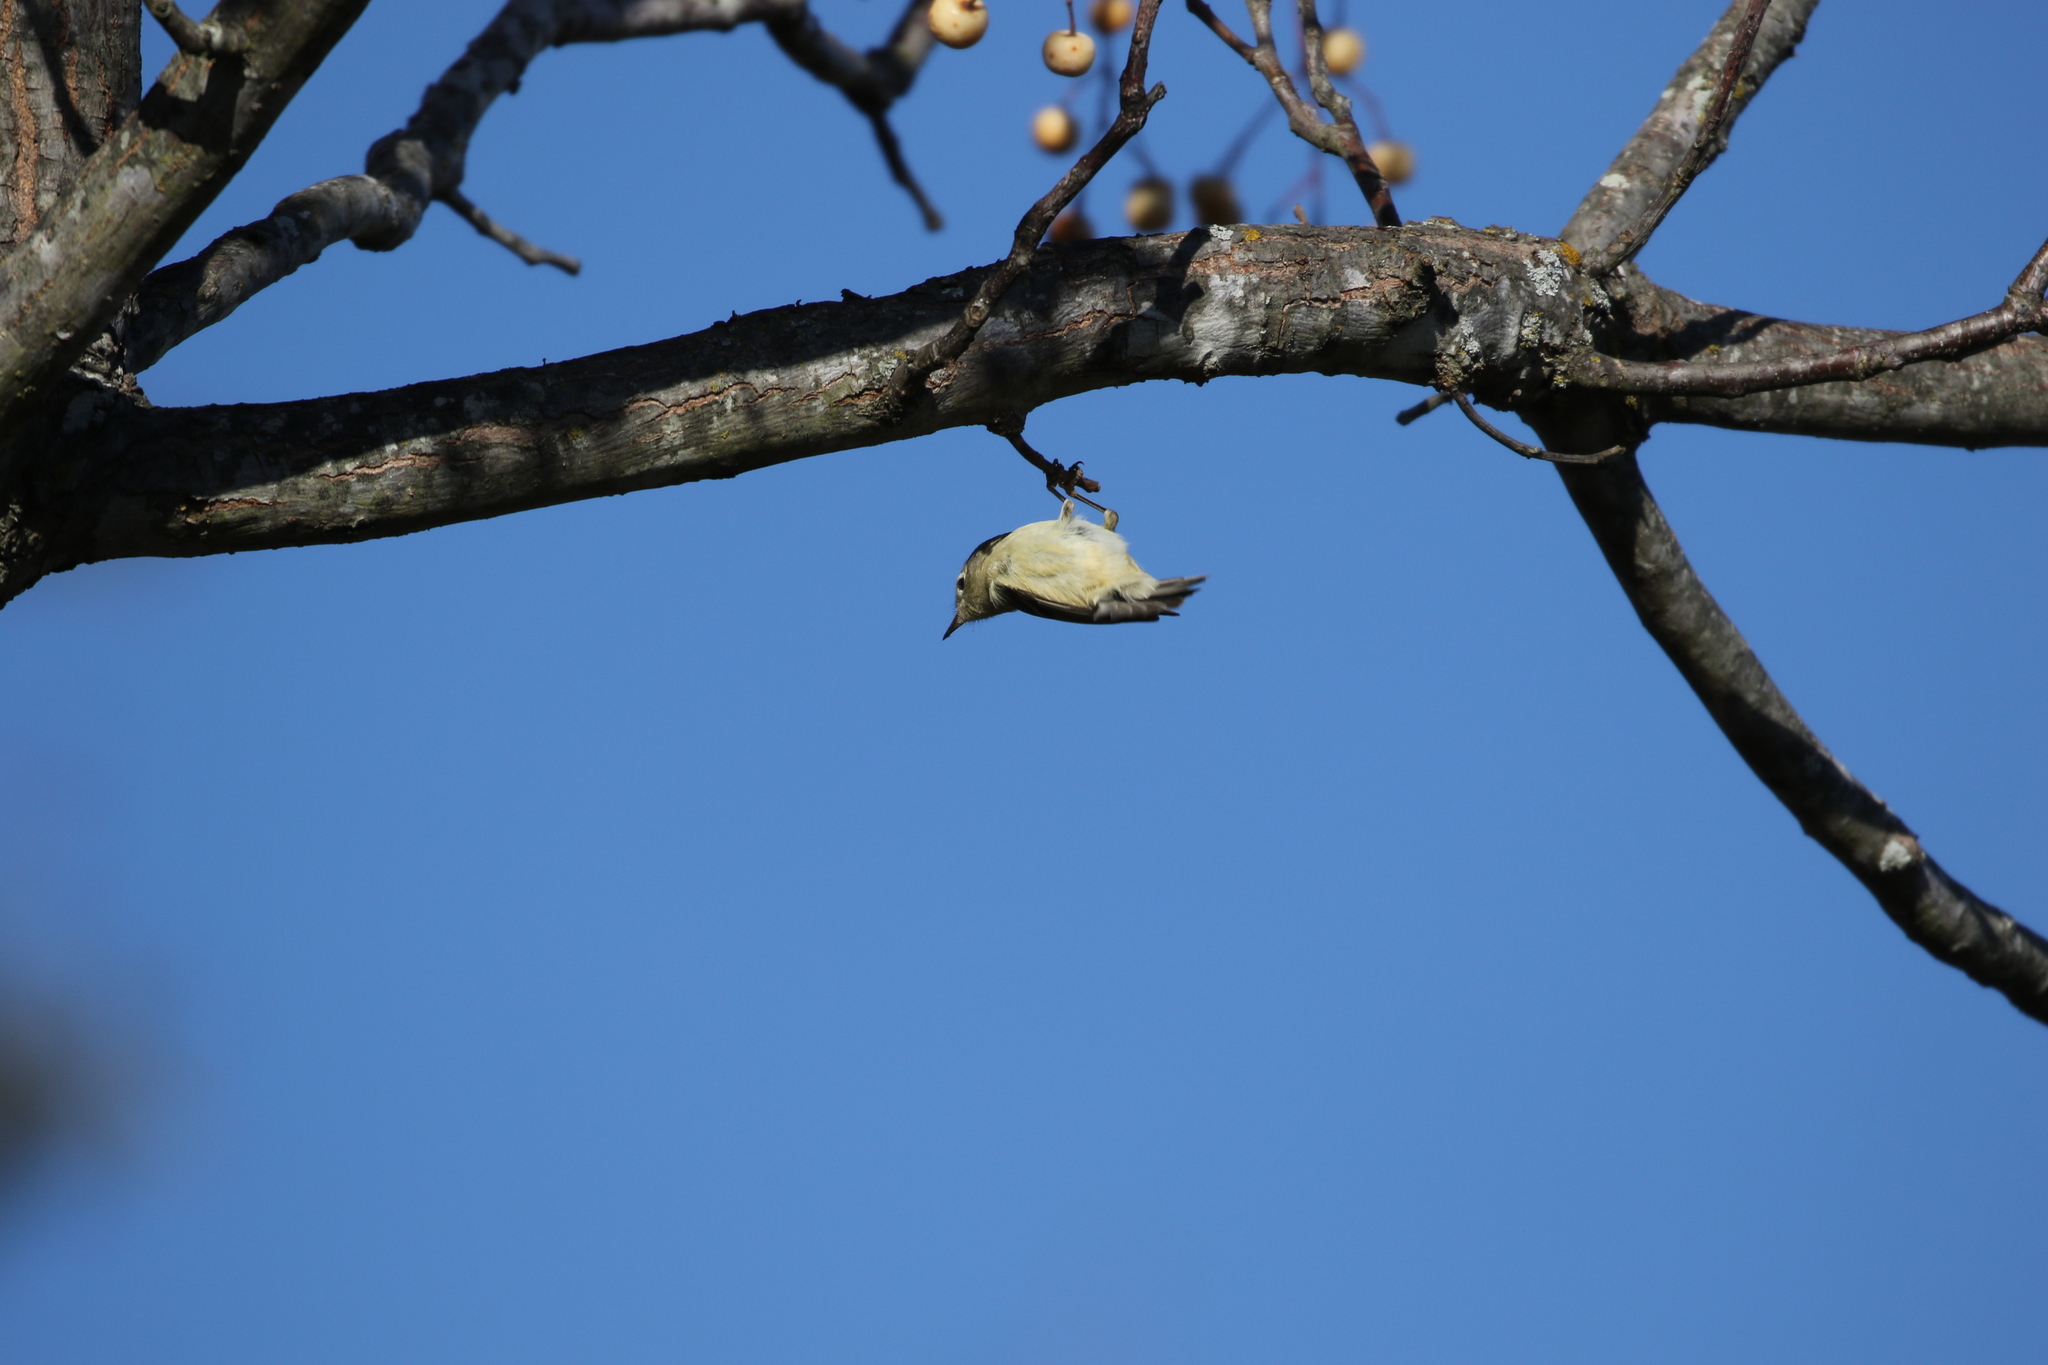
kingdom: Animalia
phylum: Chordata
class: Aves
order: Passeriformes
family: Regulidae
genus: Regulus
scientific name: Regulus calendula
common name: Ruby-crowned kinglet
